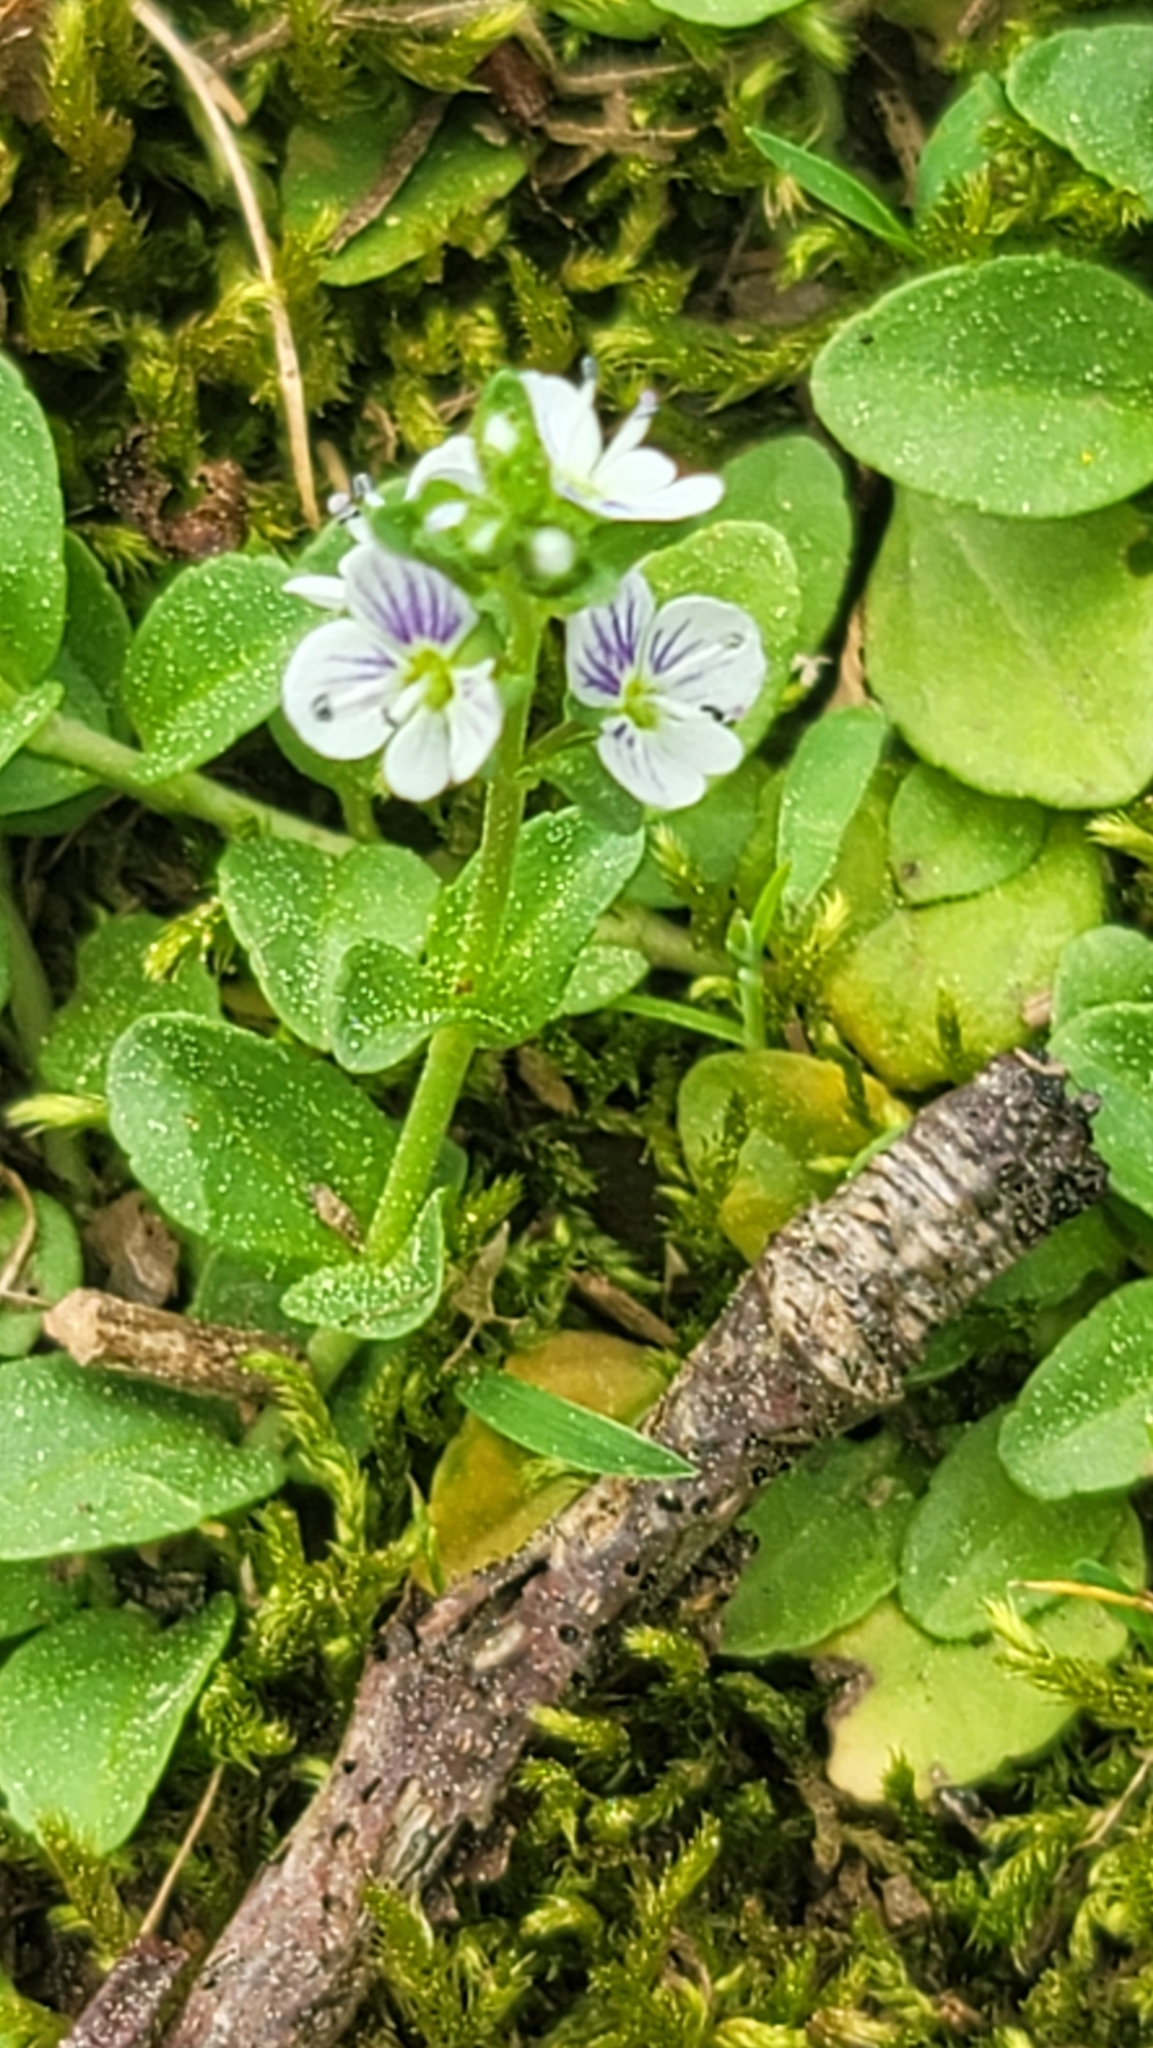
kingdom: Plantae
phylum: Tracheophyta
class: Magnoliopsida
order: Lamiales
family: Plantaginaceae
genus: Veronica
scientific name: Veronica serpyllifolia
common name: Thyme-leaved speedwell
